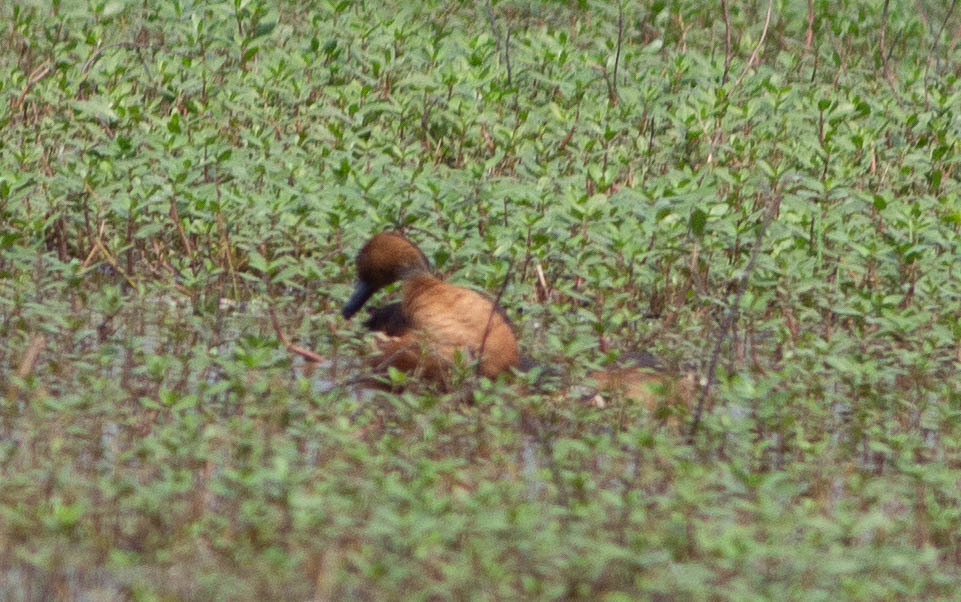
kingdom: Animalia
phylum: Chordata
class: Aves
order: Anseriformes
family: Anatidae
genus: Dendrocygna
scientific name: Dendrocygna bicolor
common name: Fulvous whistling duck
